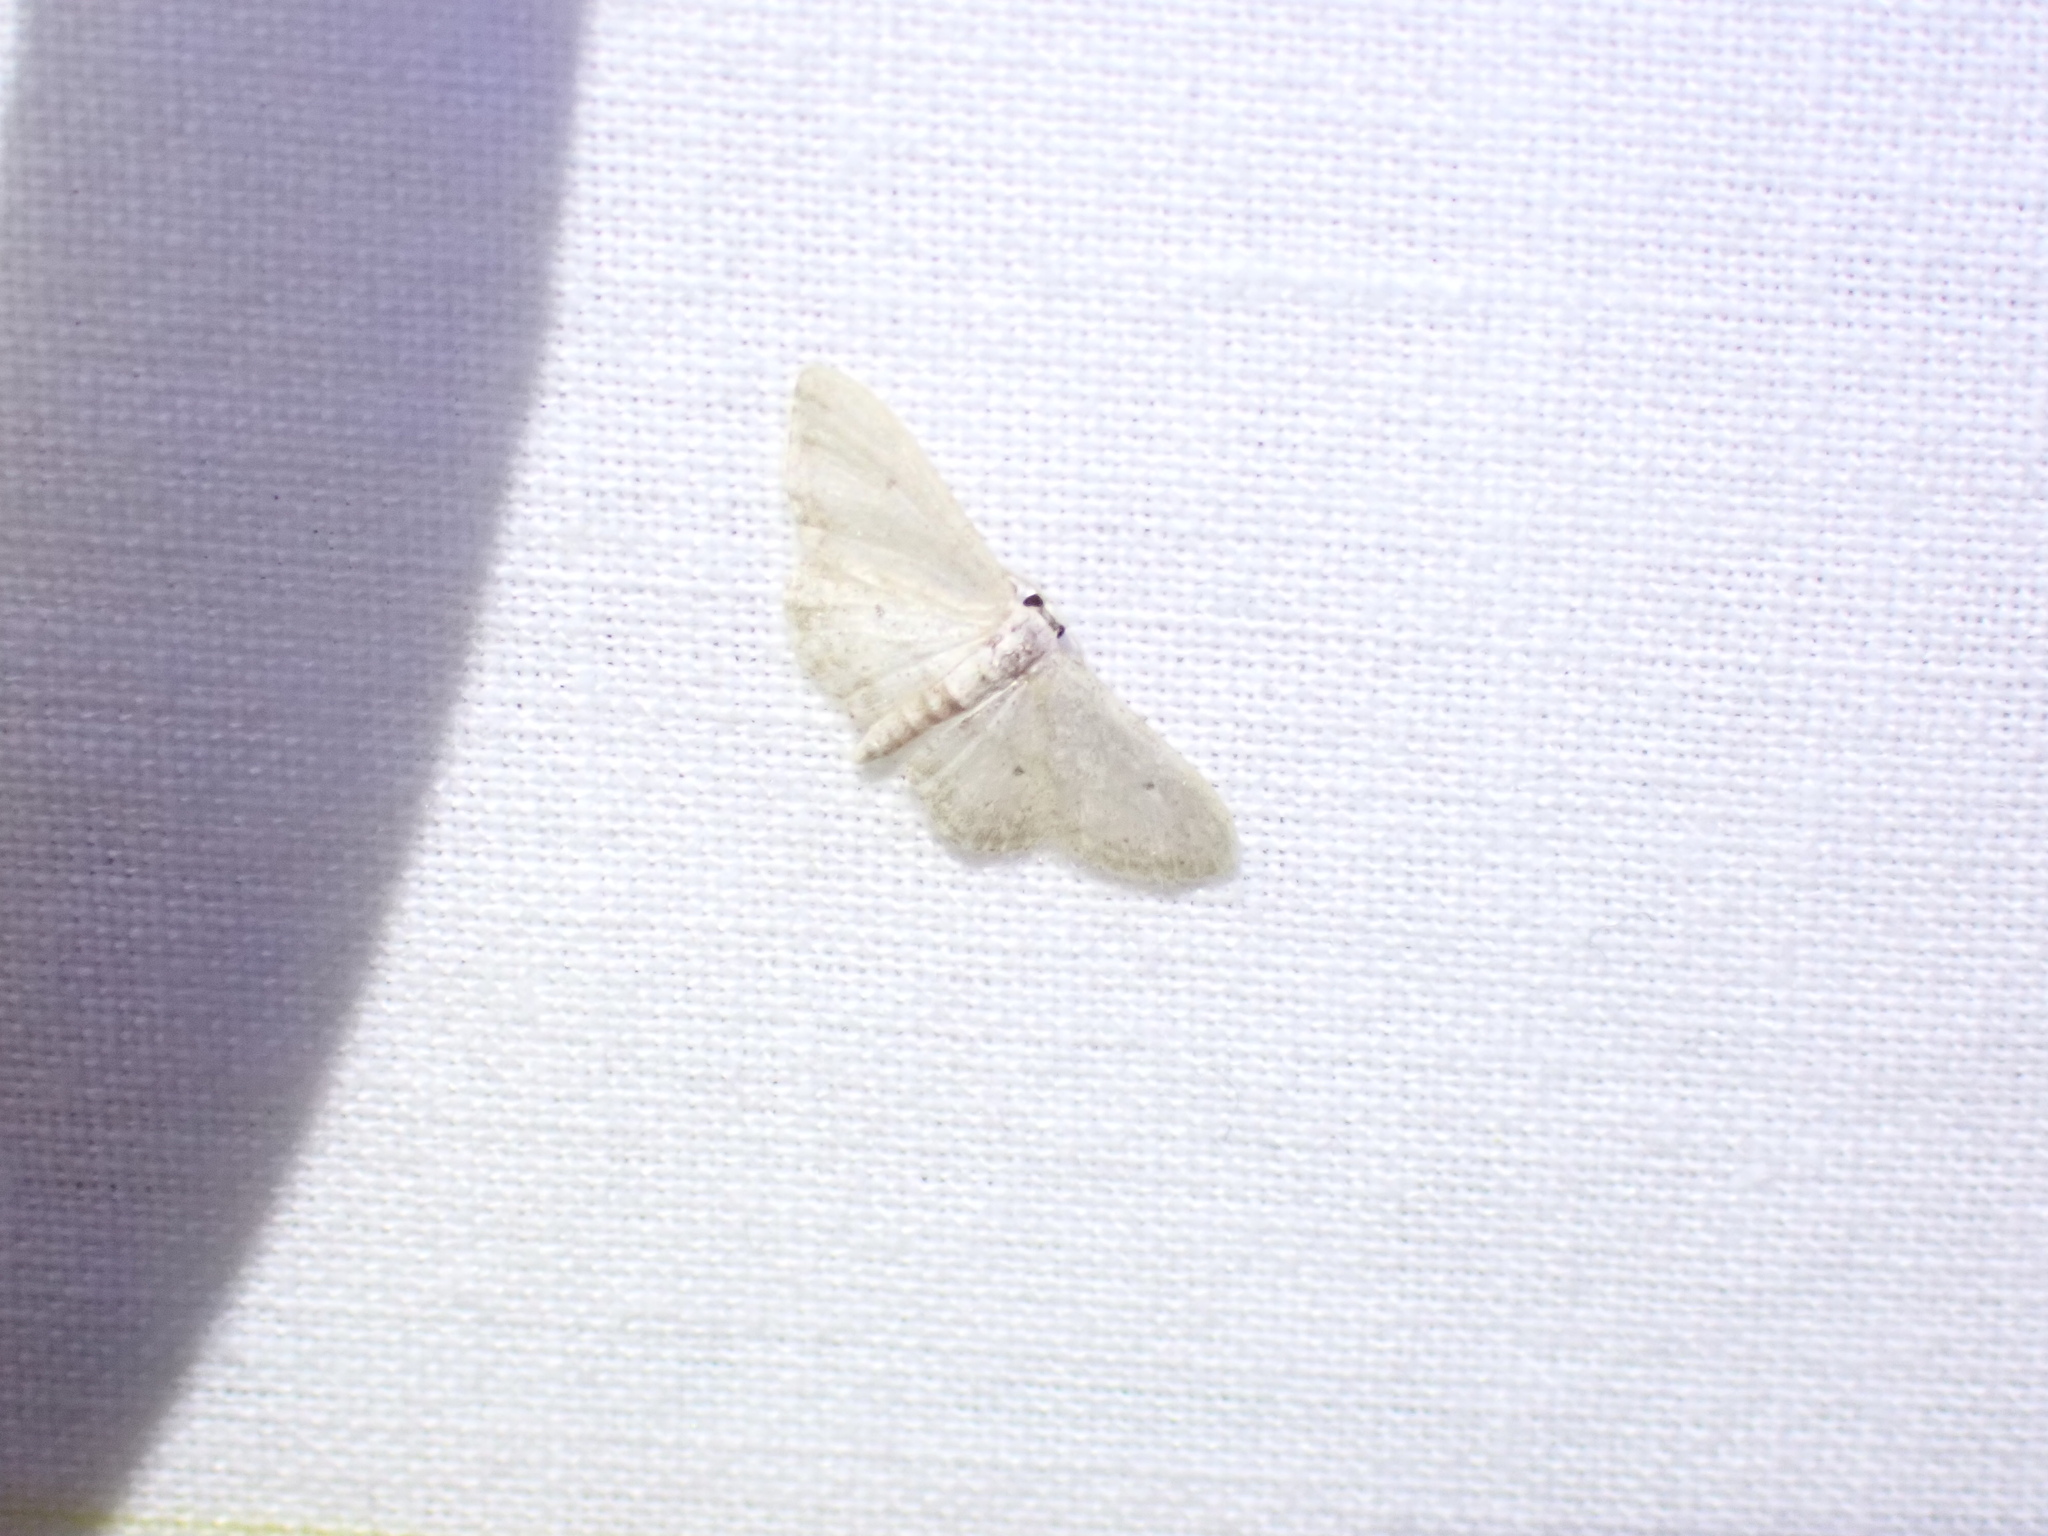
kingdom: Animalia
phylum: Arthropoda
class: Insecta
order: Lepidoptera
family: Geometridae
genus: Idaea
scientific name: Idaea seriata
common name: Small dusty wave
